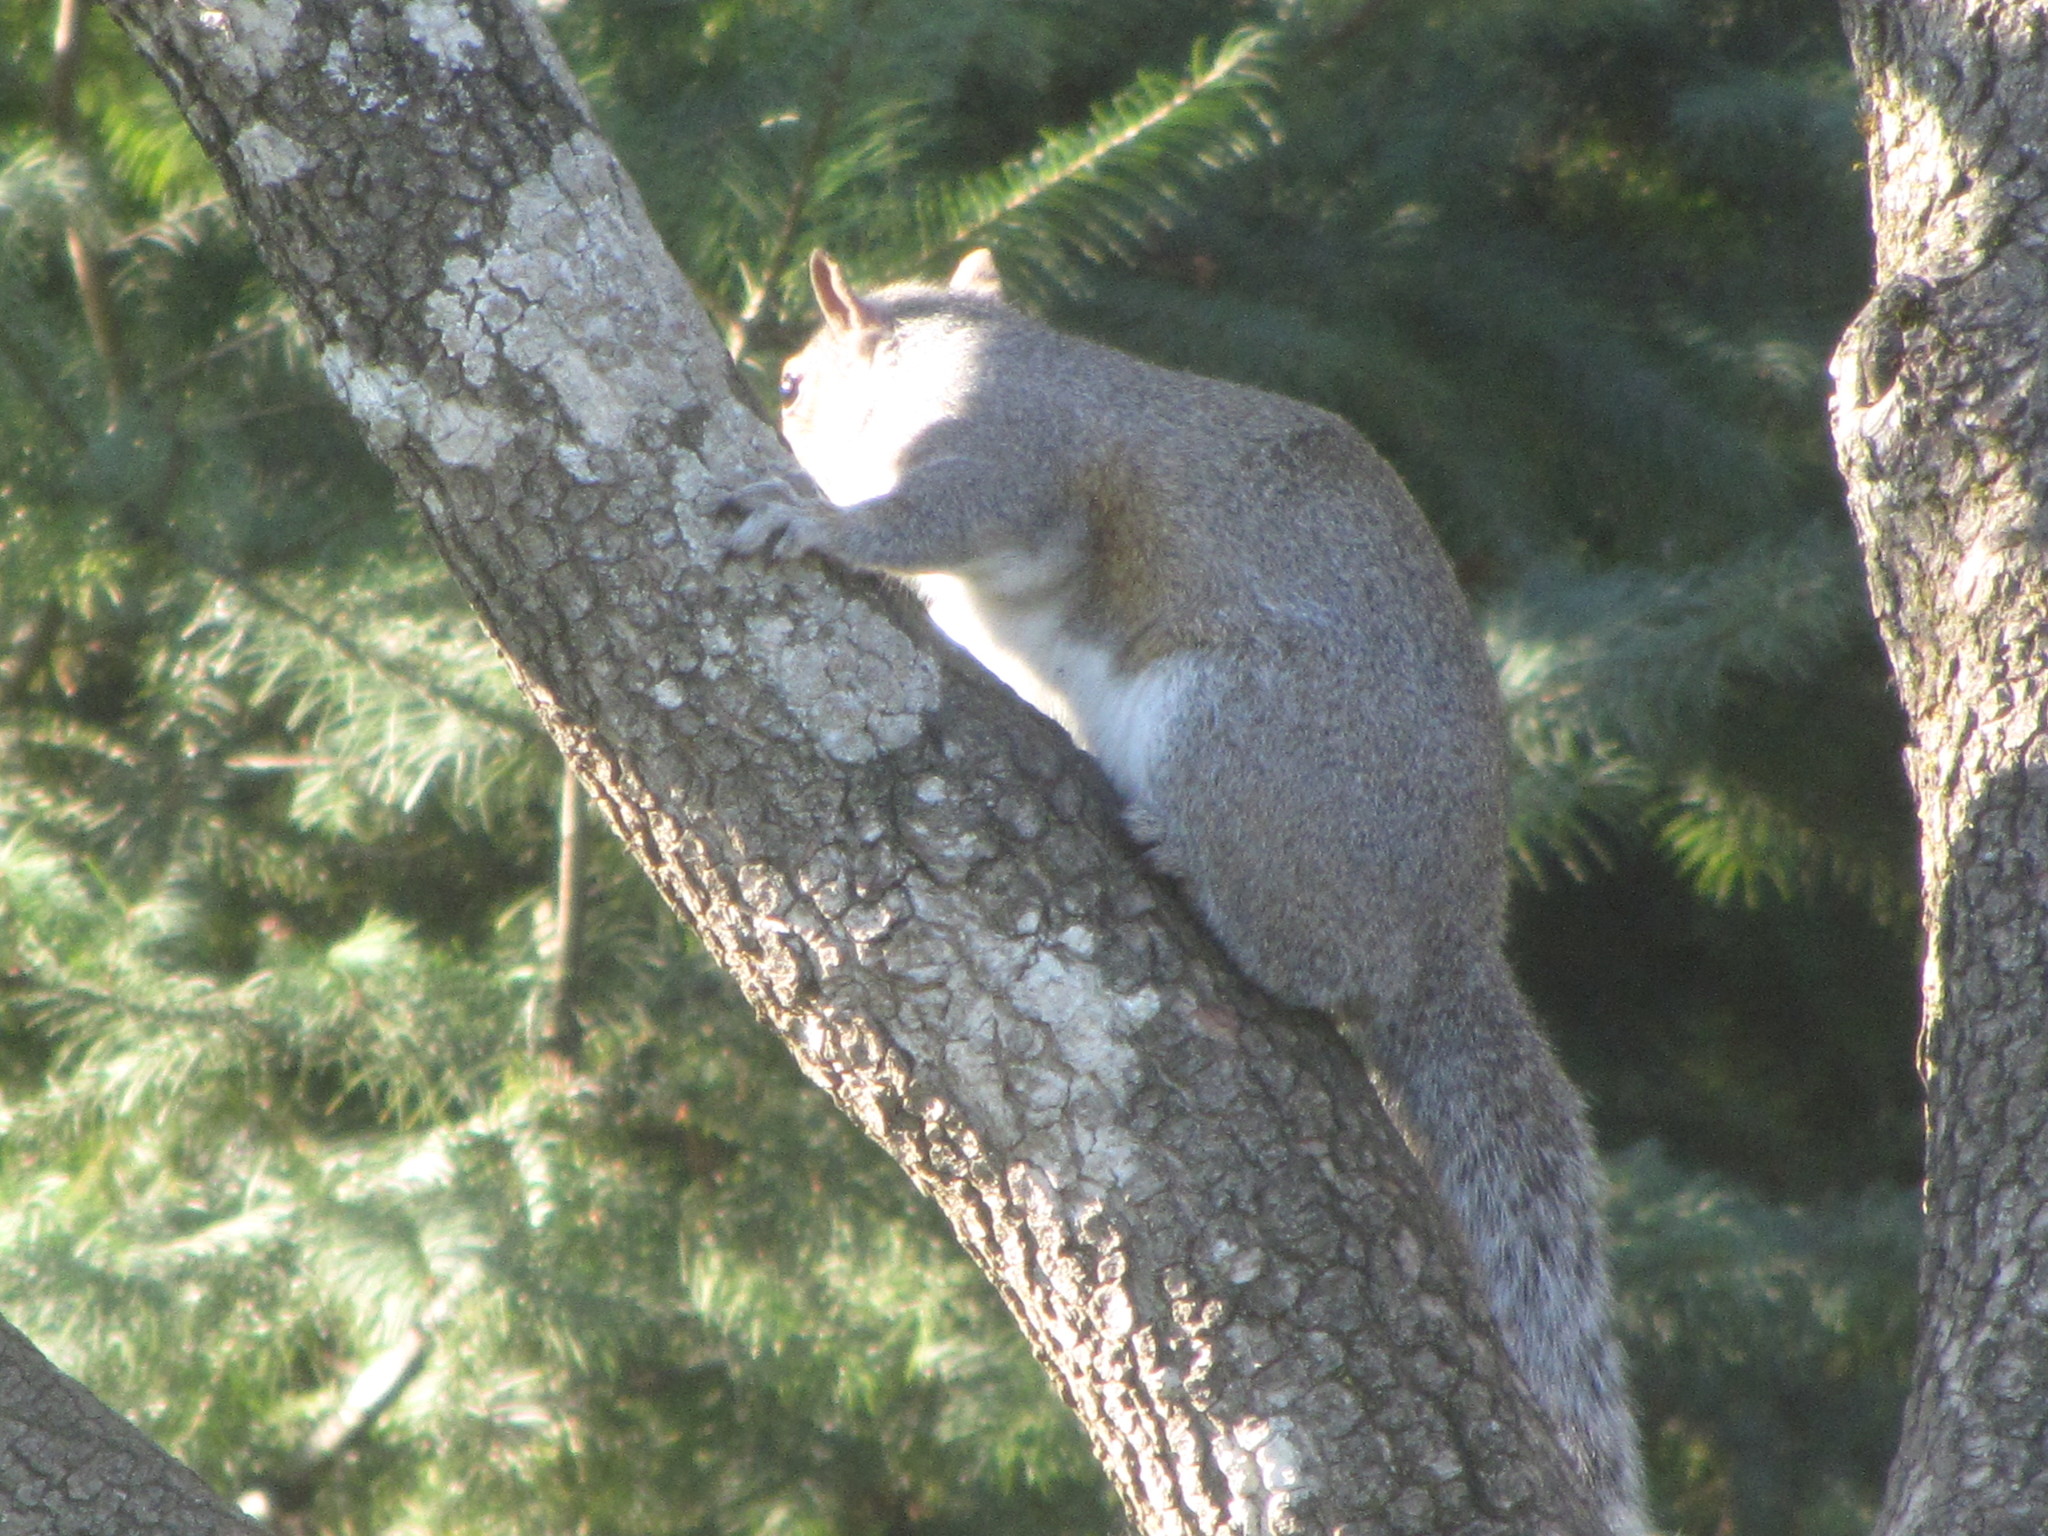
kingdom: Animalia
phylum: Chordata
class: Mammalia
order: Rodentia
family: Sciuridae
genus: Sciurus
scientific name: Sciurus carolinensis
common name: Eastern gray squirrel
